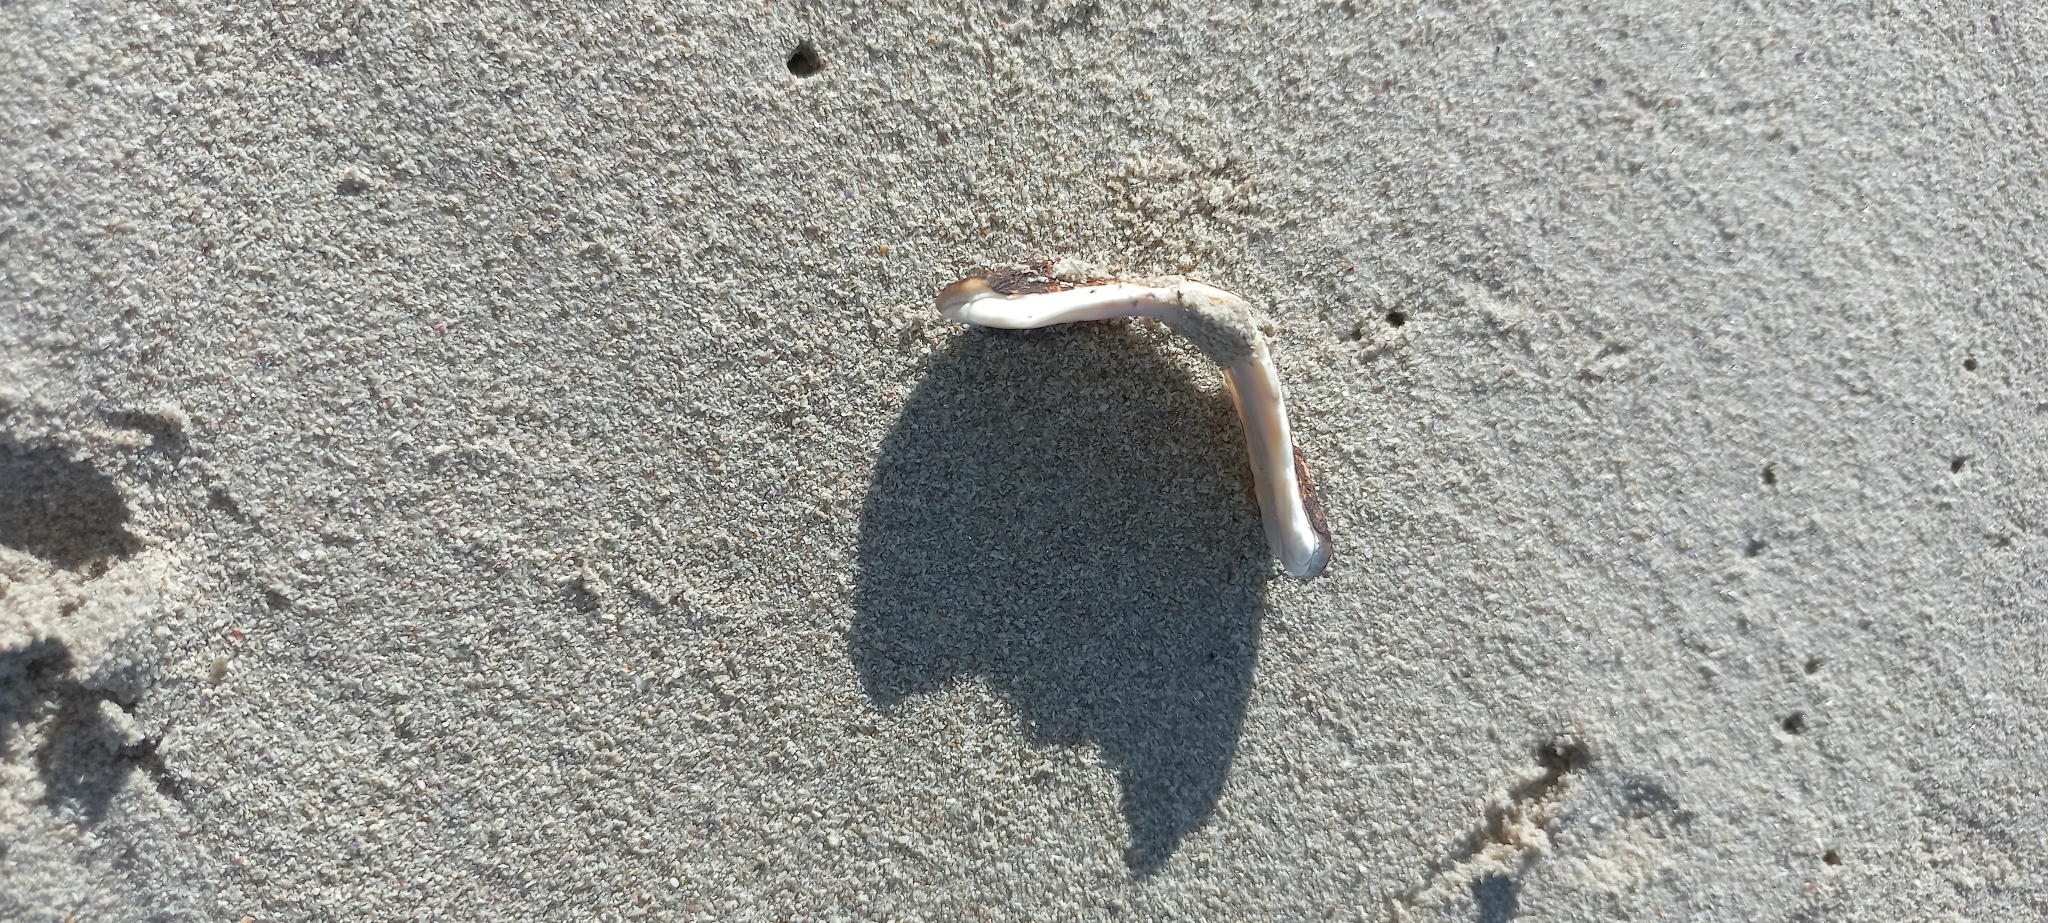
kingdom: Animalia
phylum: Mollusca
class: Polyplacophora
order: Chitonida
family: Chaetopleuridae
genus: Dinoplax
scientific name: Dinoplax gigas
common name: Armadillo
